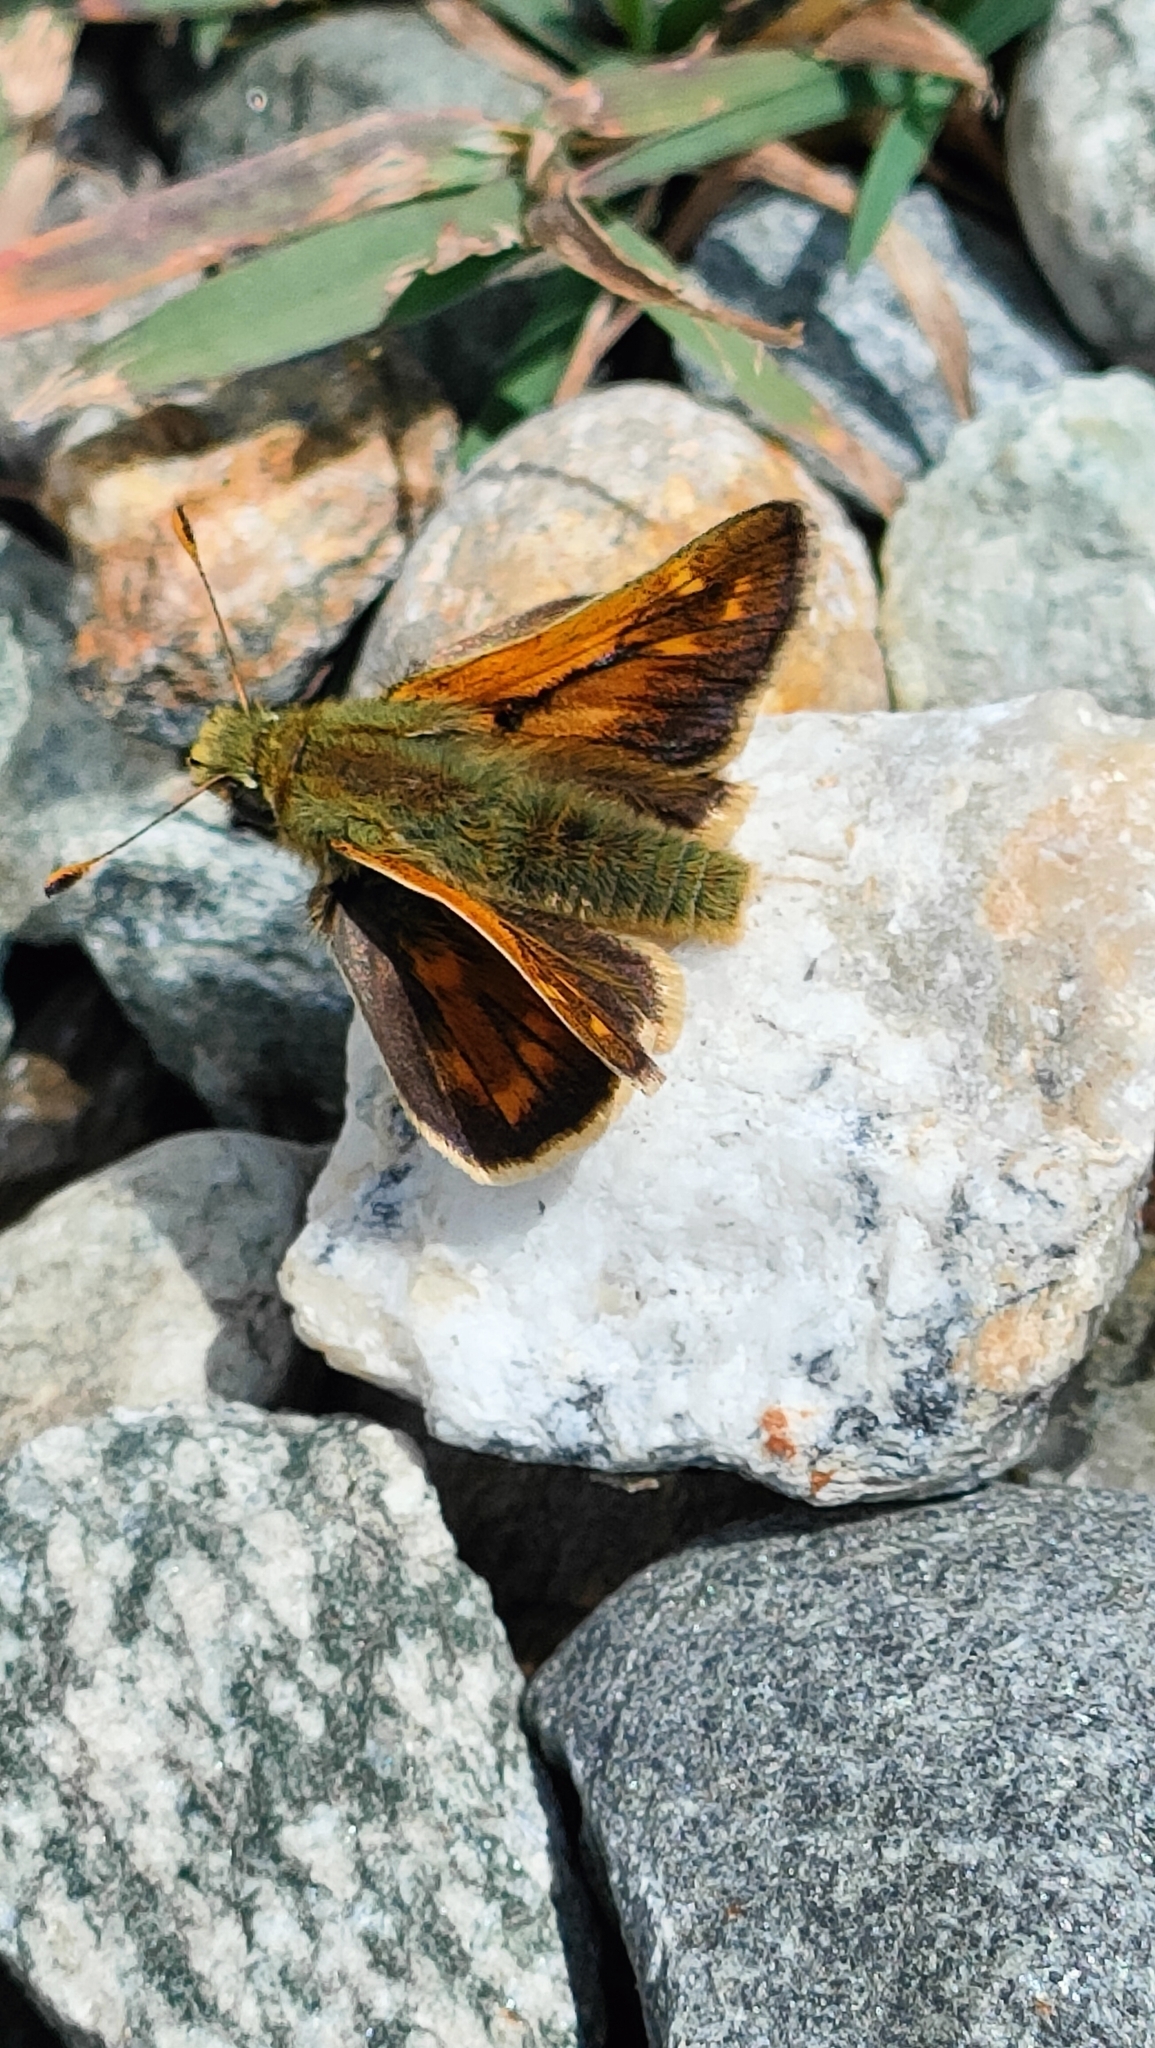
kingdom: Animalia
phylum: Arthropoda
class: Insecta
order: Lepidoptera
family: Hesperiidae
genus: Hesperia
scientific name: Hesperia comma
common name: Common branded skipper
